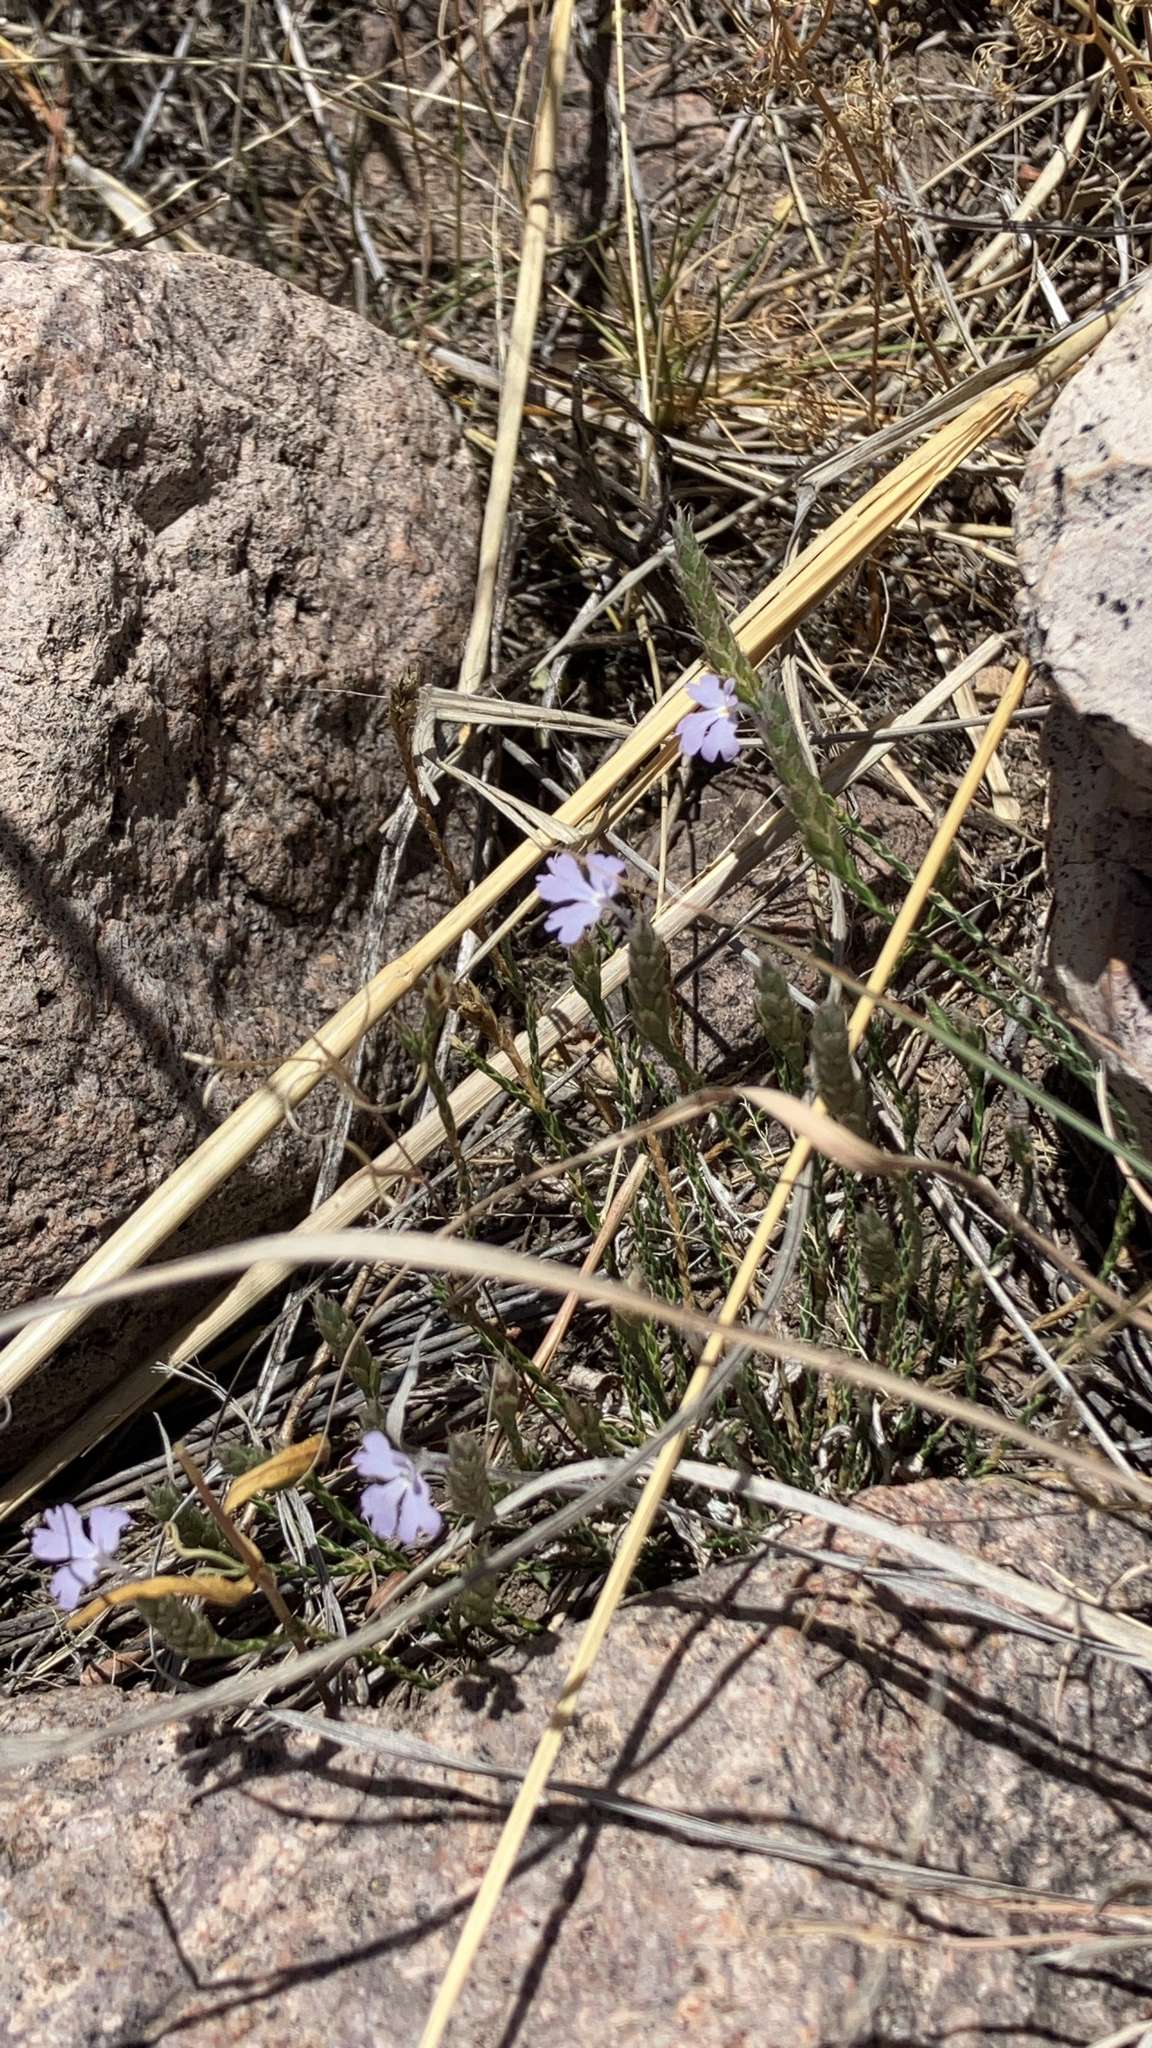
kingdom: Plantae
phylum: Tracheophyta
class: Magnoliopsida
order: Lamiales
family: Acanthaceae
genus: Elytraria
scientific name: Elytraria imbricata
